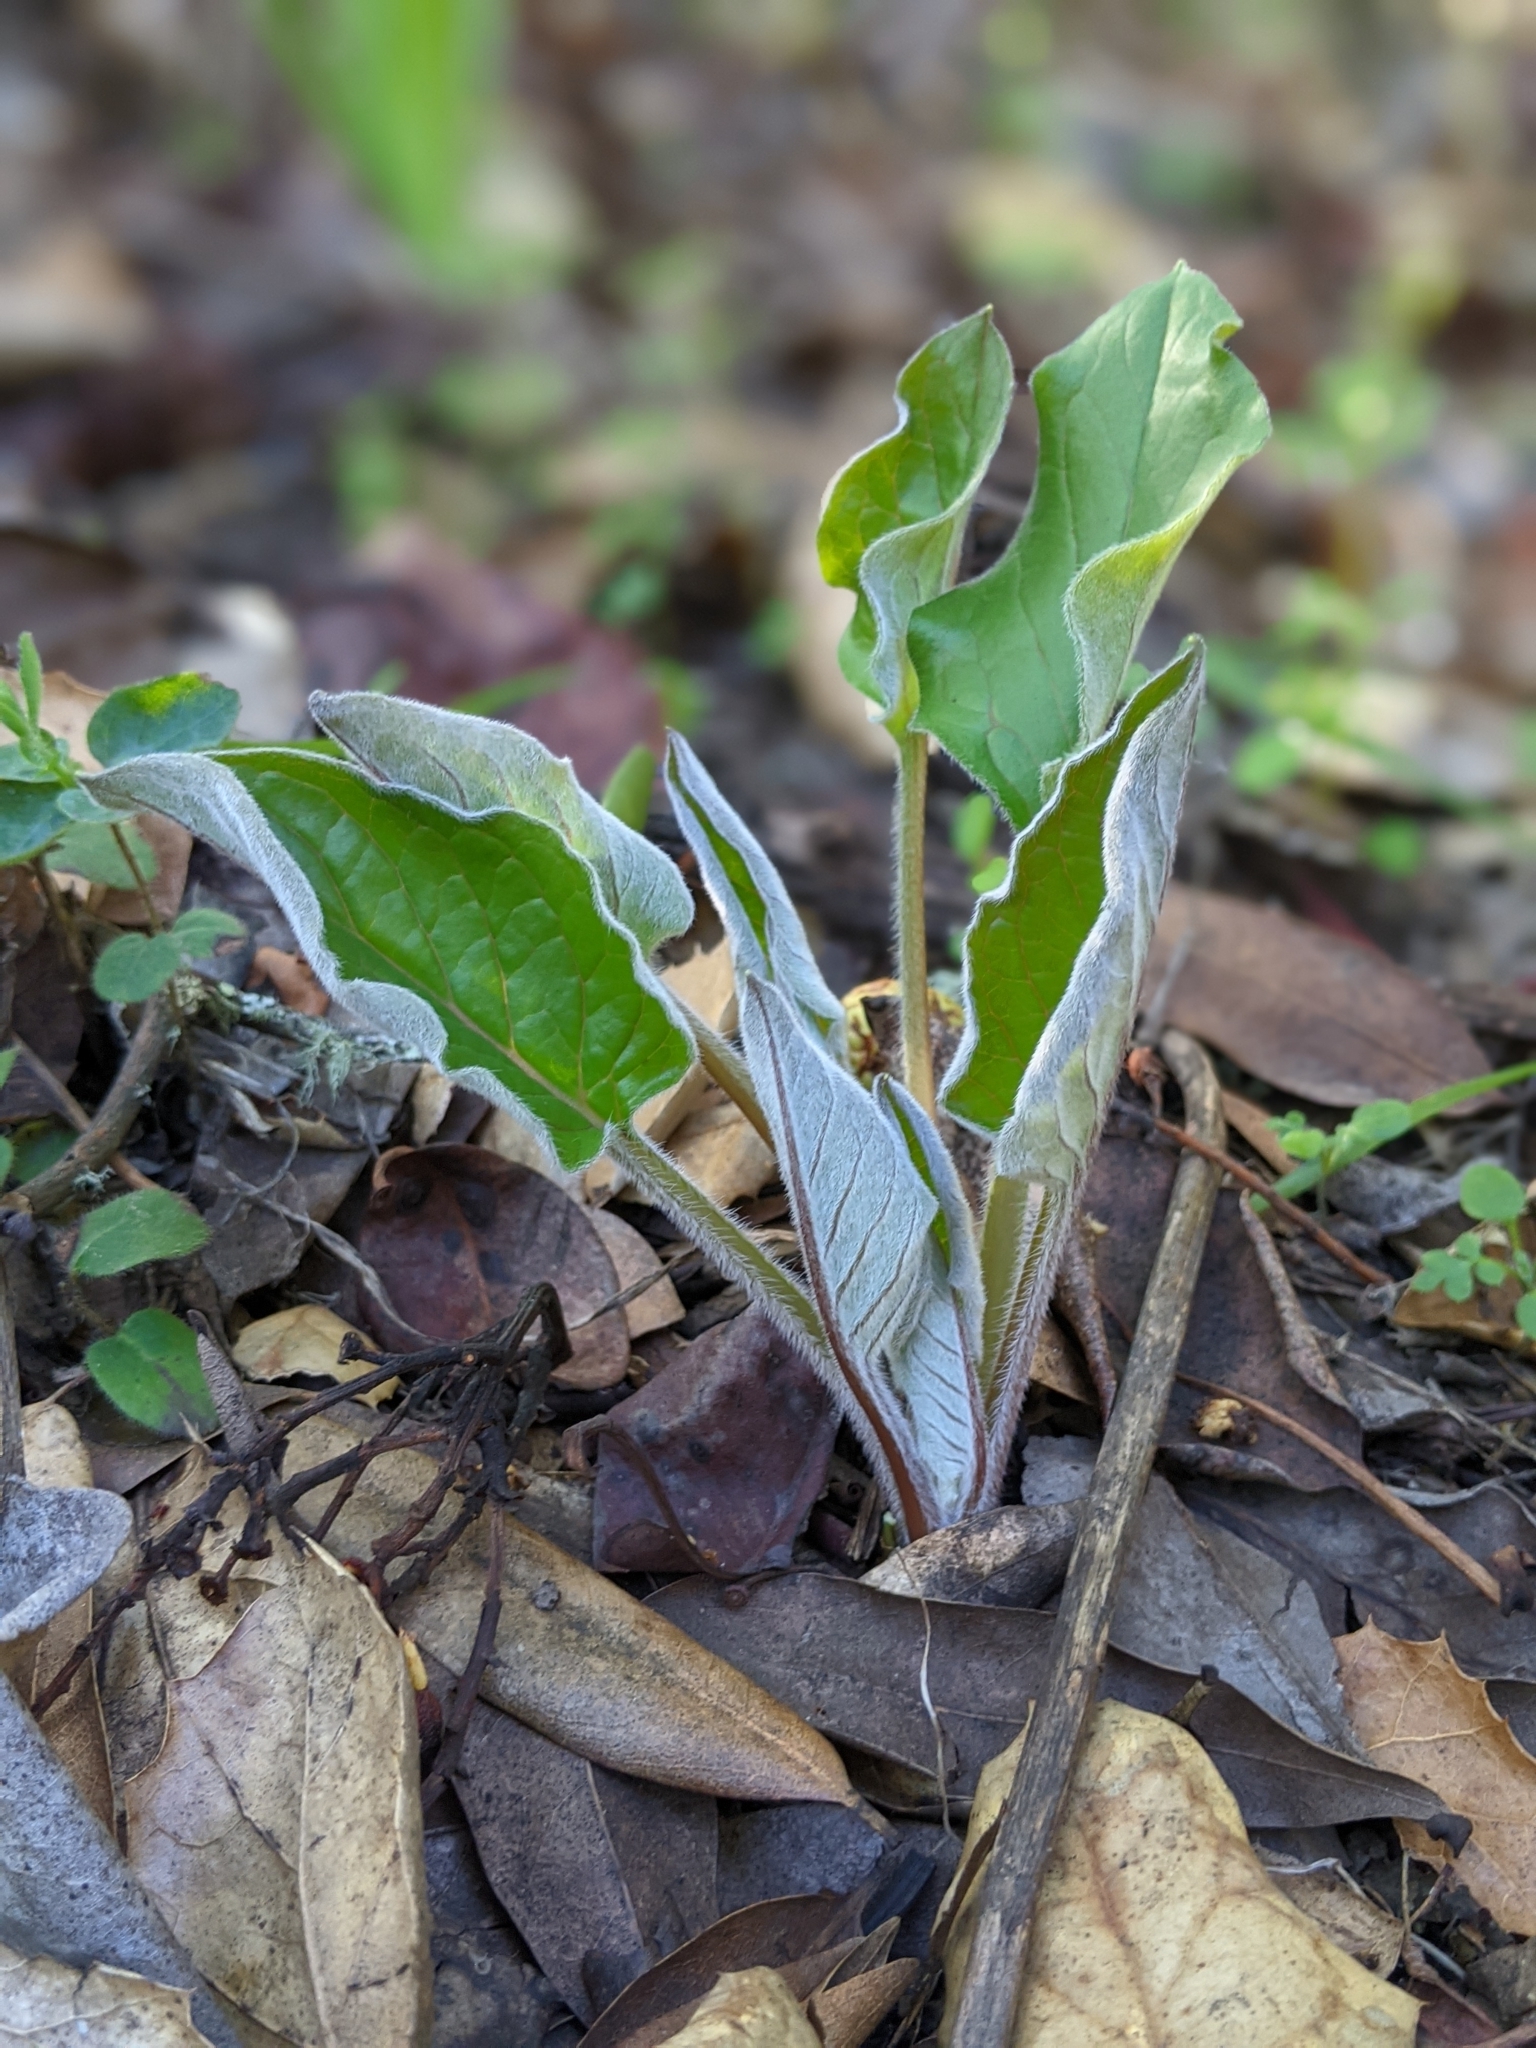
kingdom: Plantae
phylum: Tracheophyta
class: Magnoliopsida
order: Boraginales
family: Boraginaceae
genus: Adelinia
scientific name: Adelinia grande
